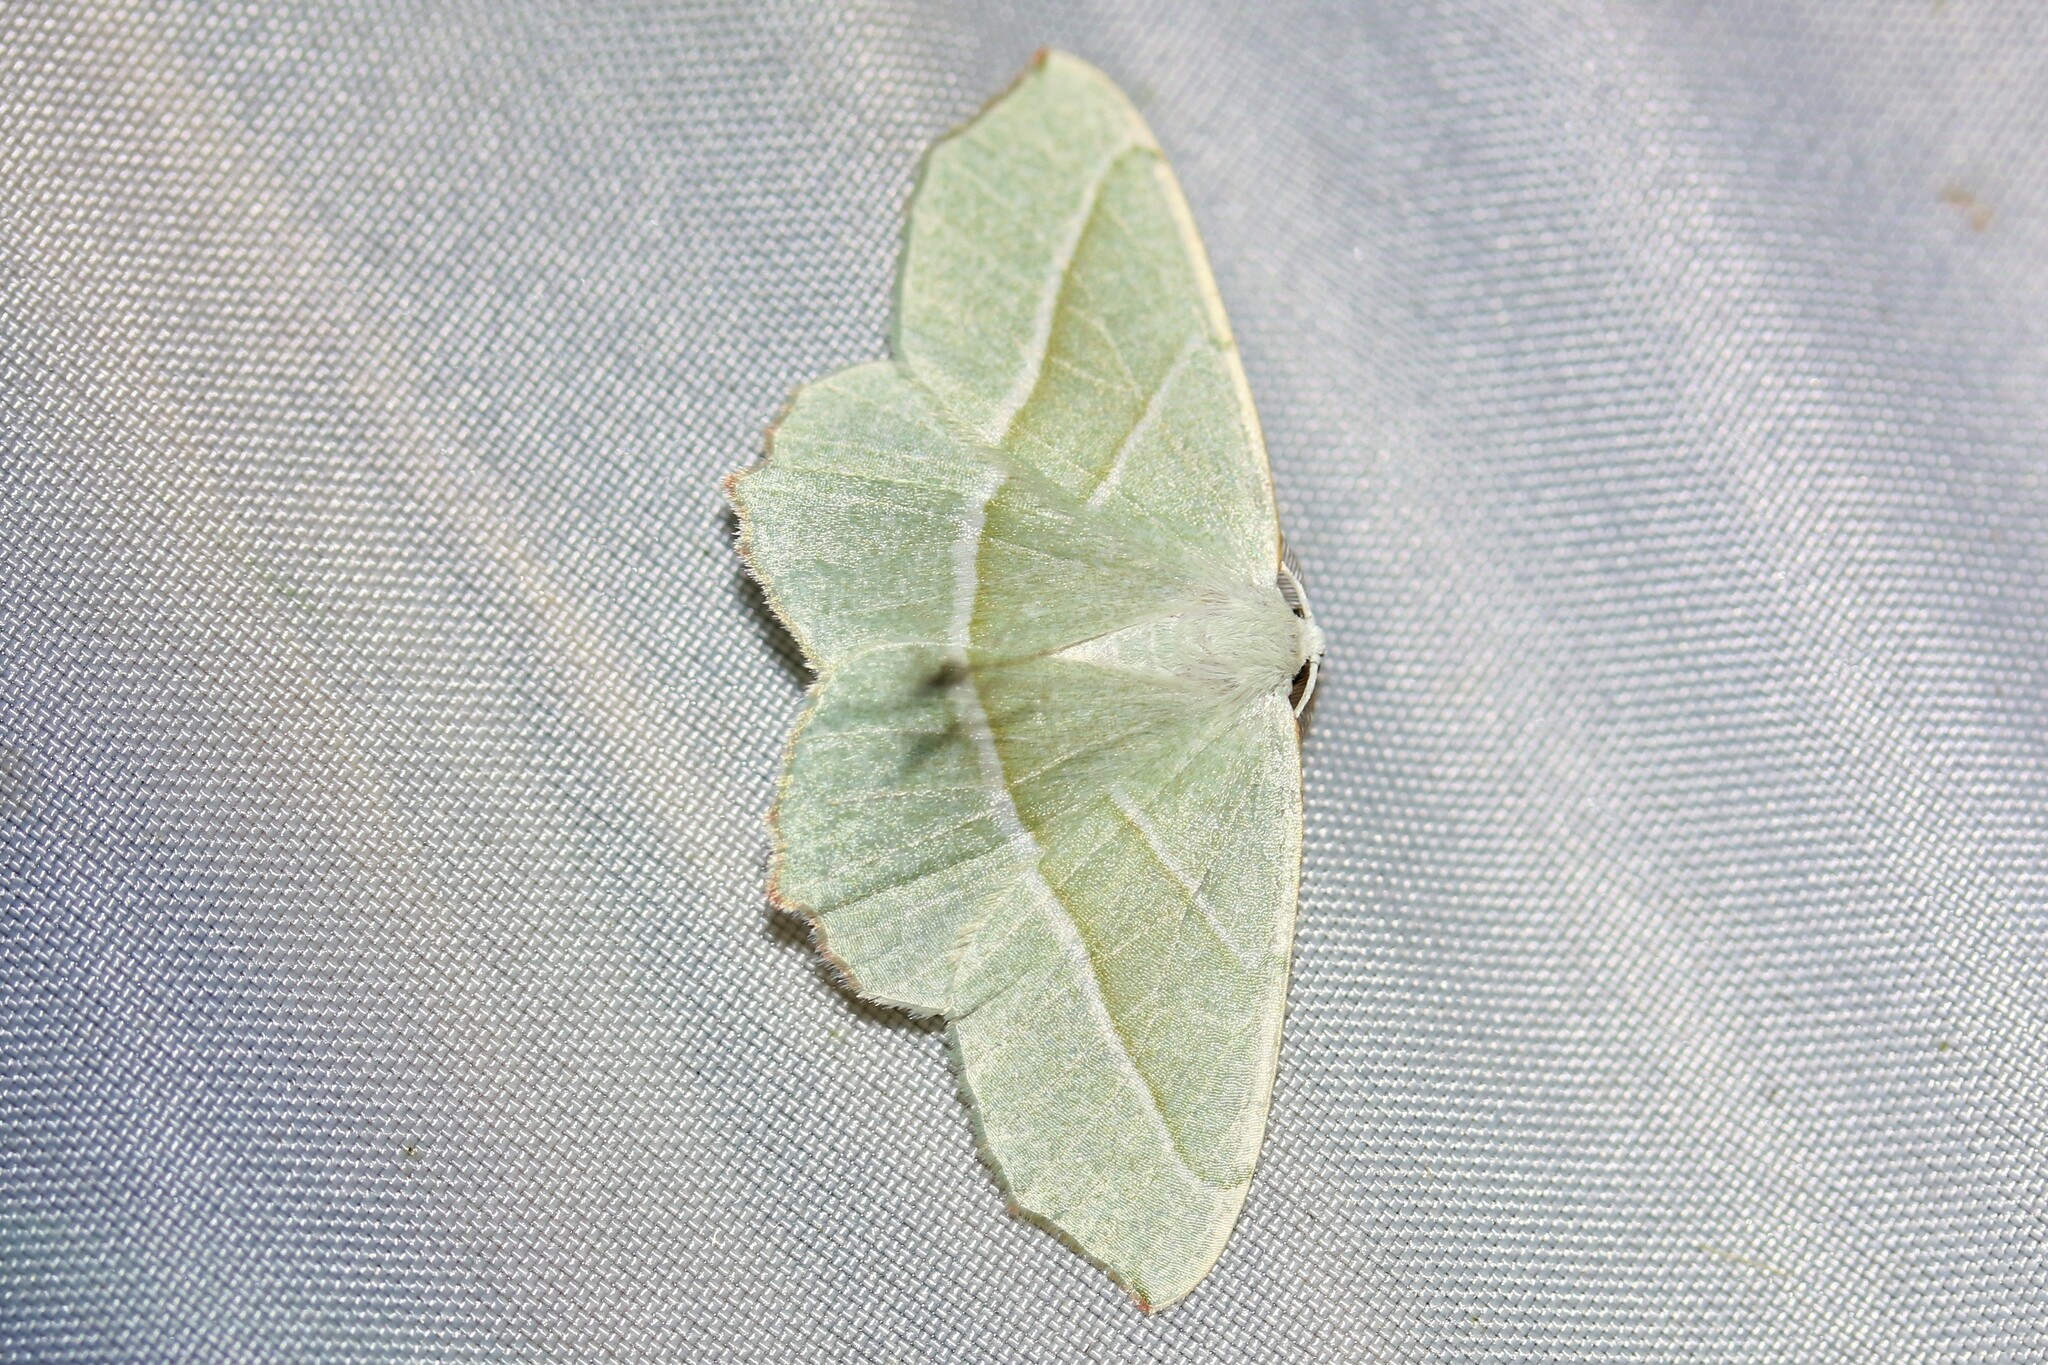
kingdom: Animalia
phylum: Arthropoda
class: Insecta
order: Lepidoptera
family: Geometridae
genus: Campaea
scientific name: Campaea margaritaria
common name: Light emerald
